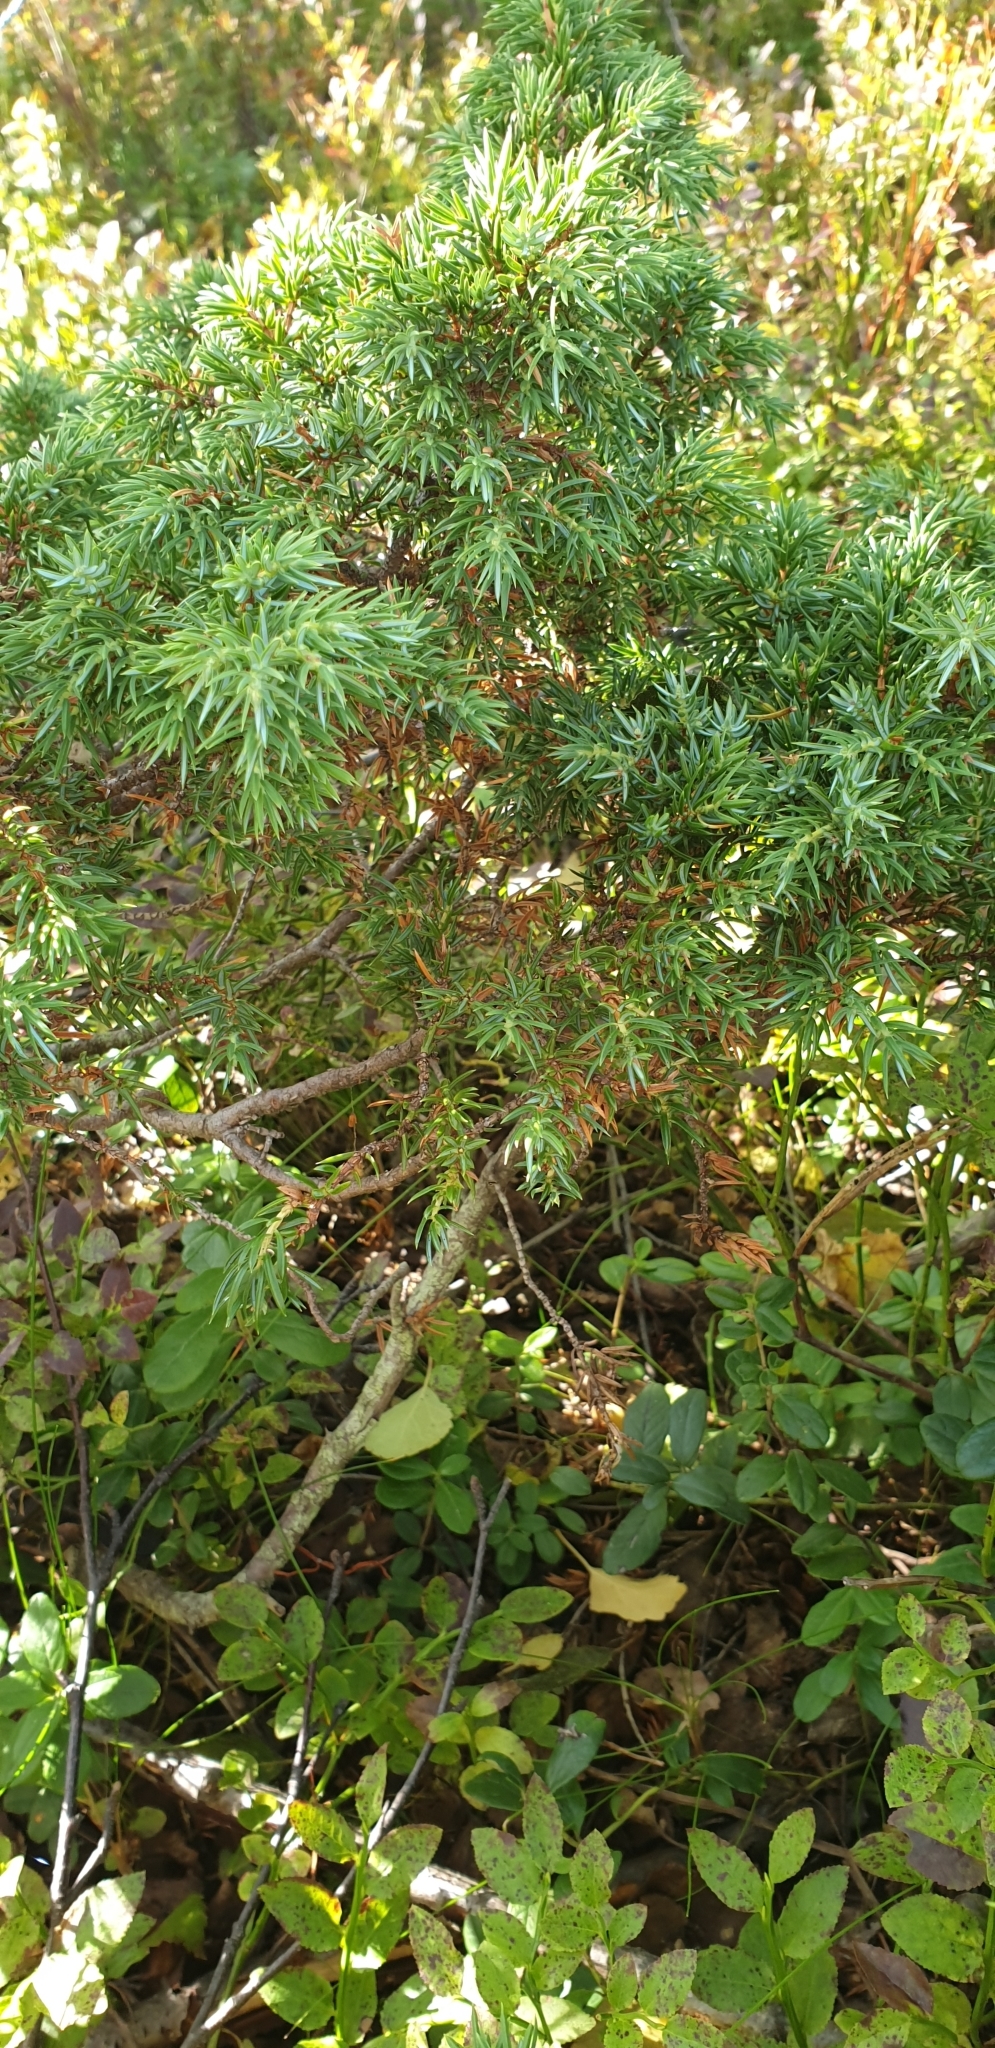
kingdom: Plantae
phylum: Tracheophyta
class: Pinopsida
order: Pinales
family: Cupressaceae
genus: Juniperus
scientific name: Juniperus communis
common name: Common juniper
